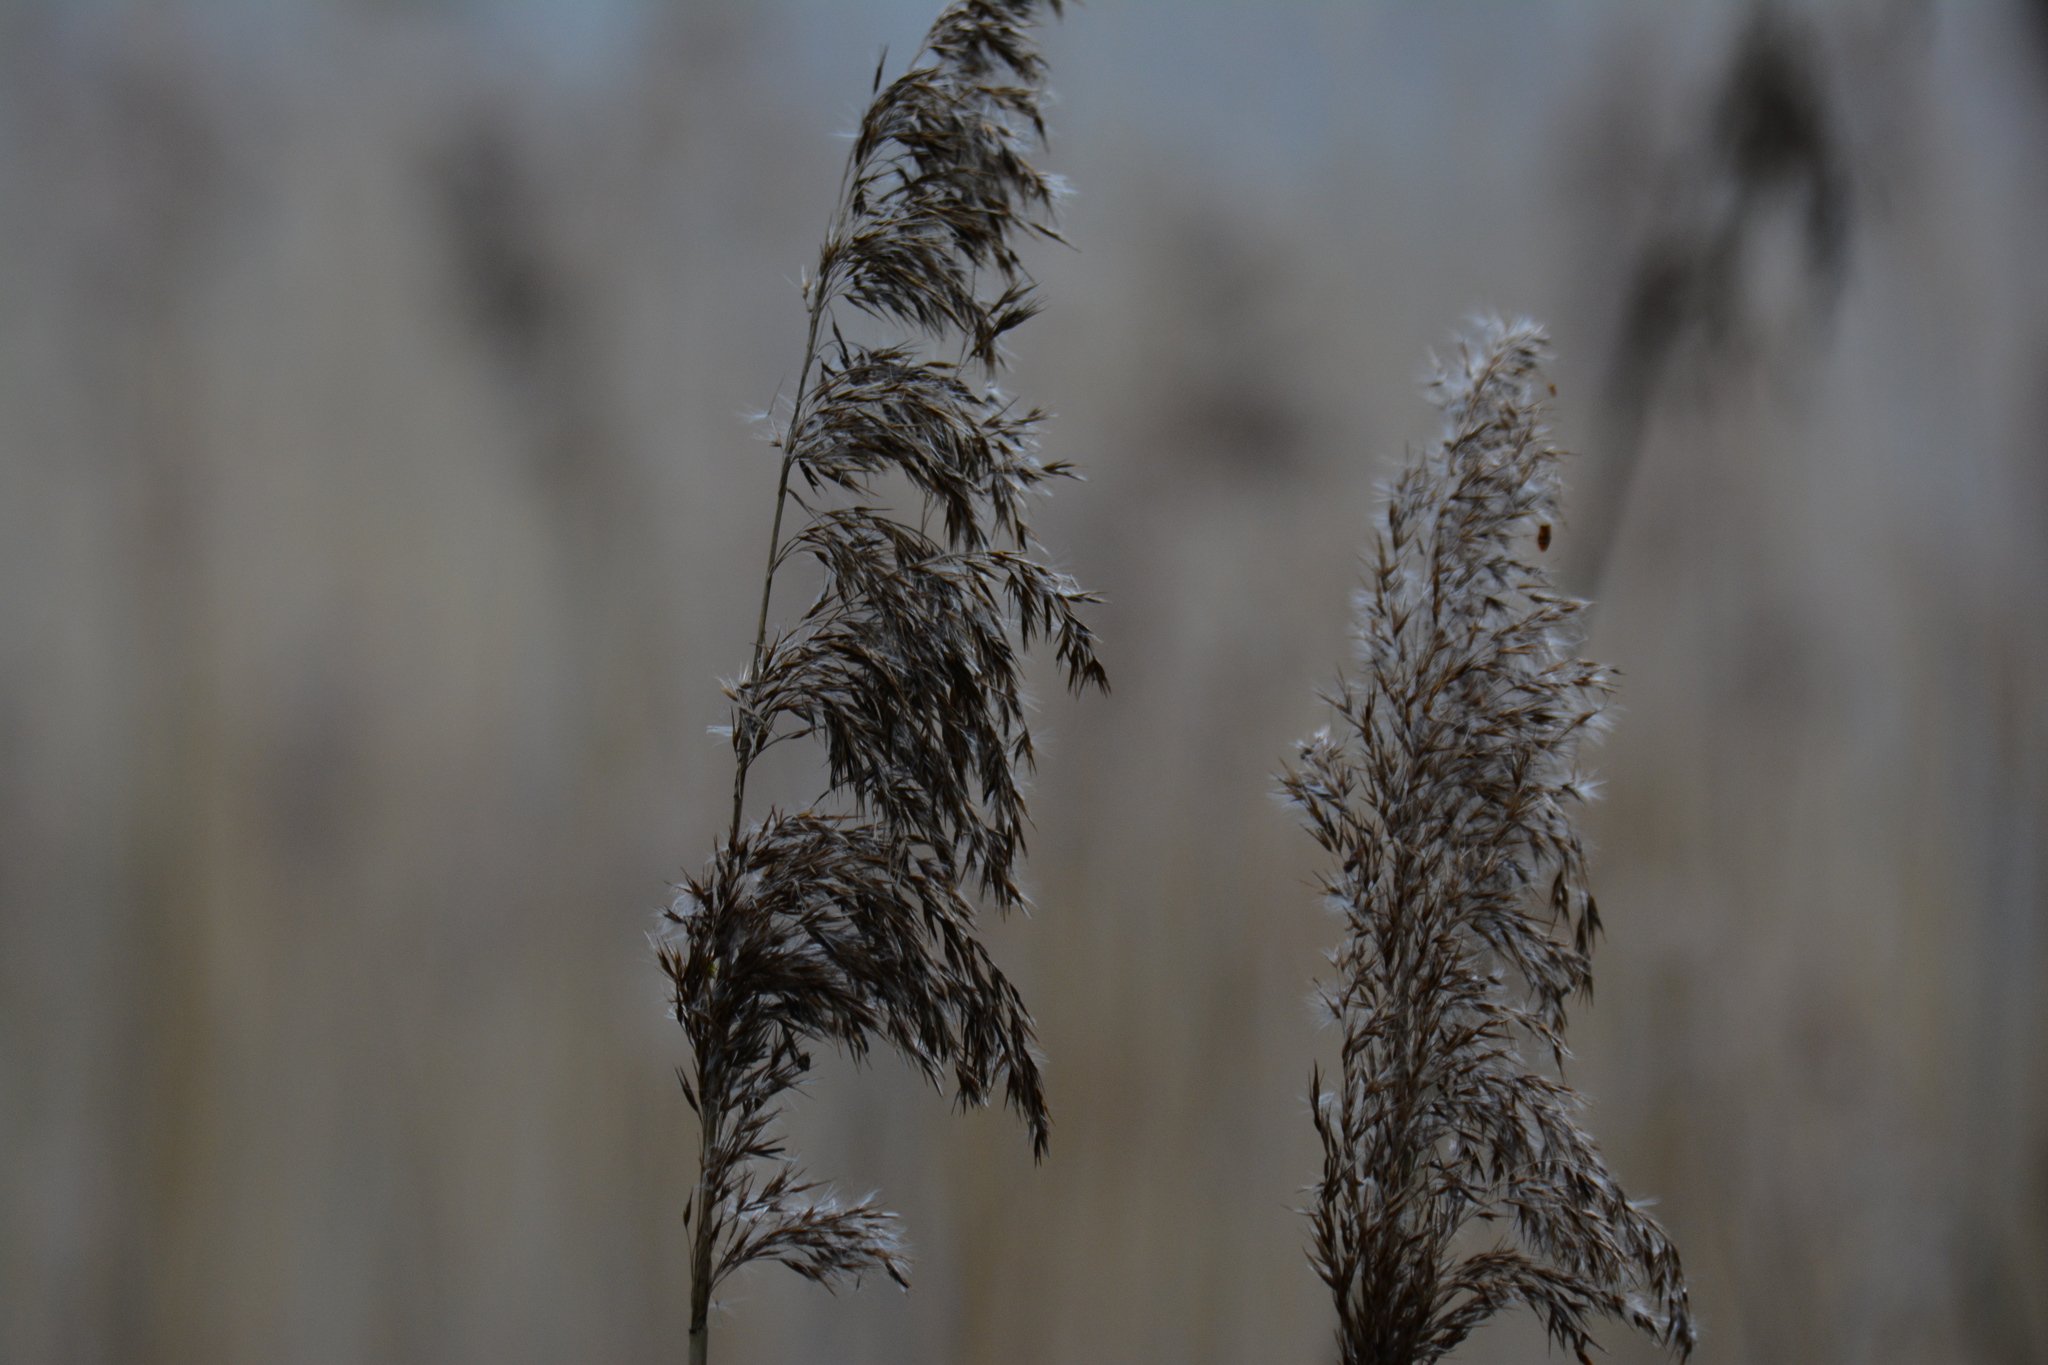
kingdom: Plantae
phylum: Tracheophyta
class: Liliopsida
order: Poales
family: Poaceae
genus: Phragmites
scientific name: Phragmites australis
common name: Common reed
